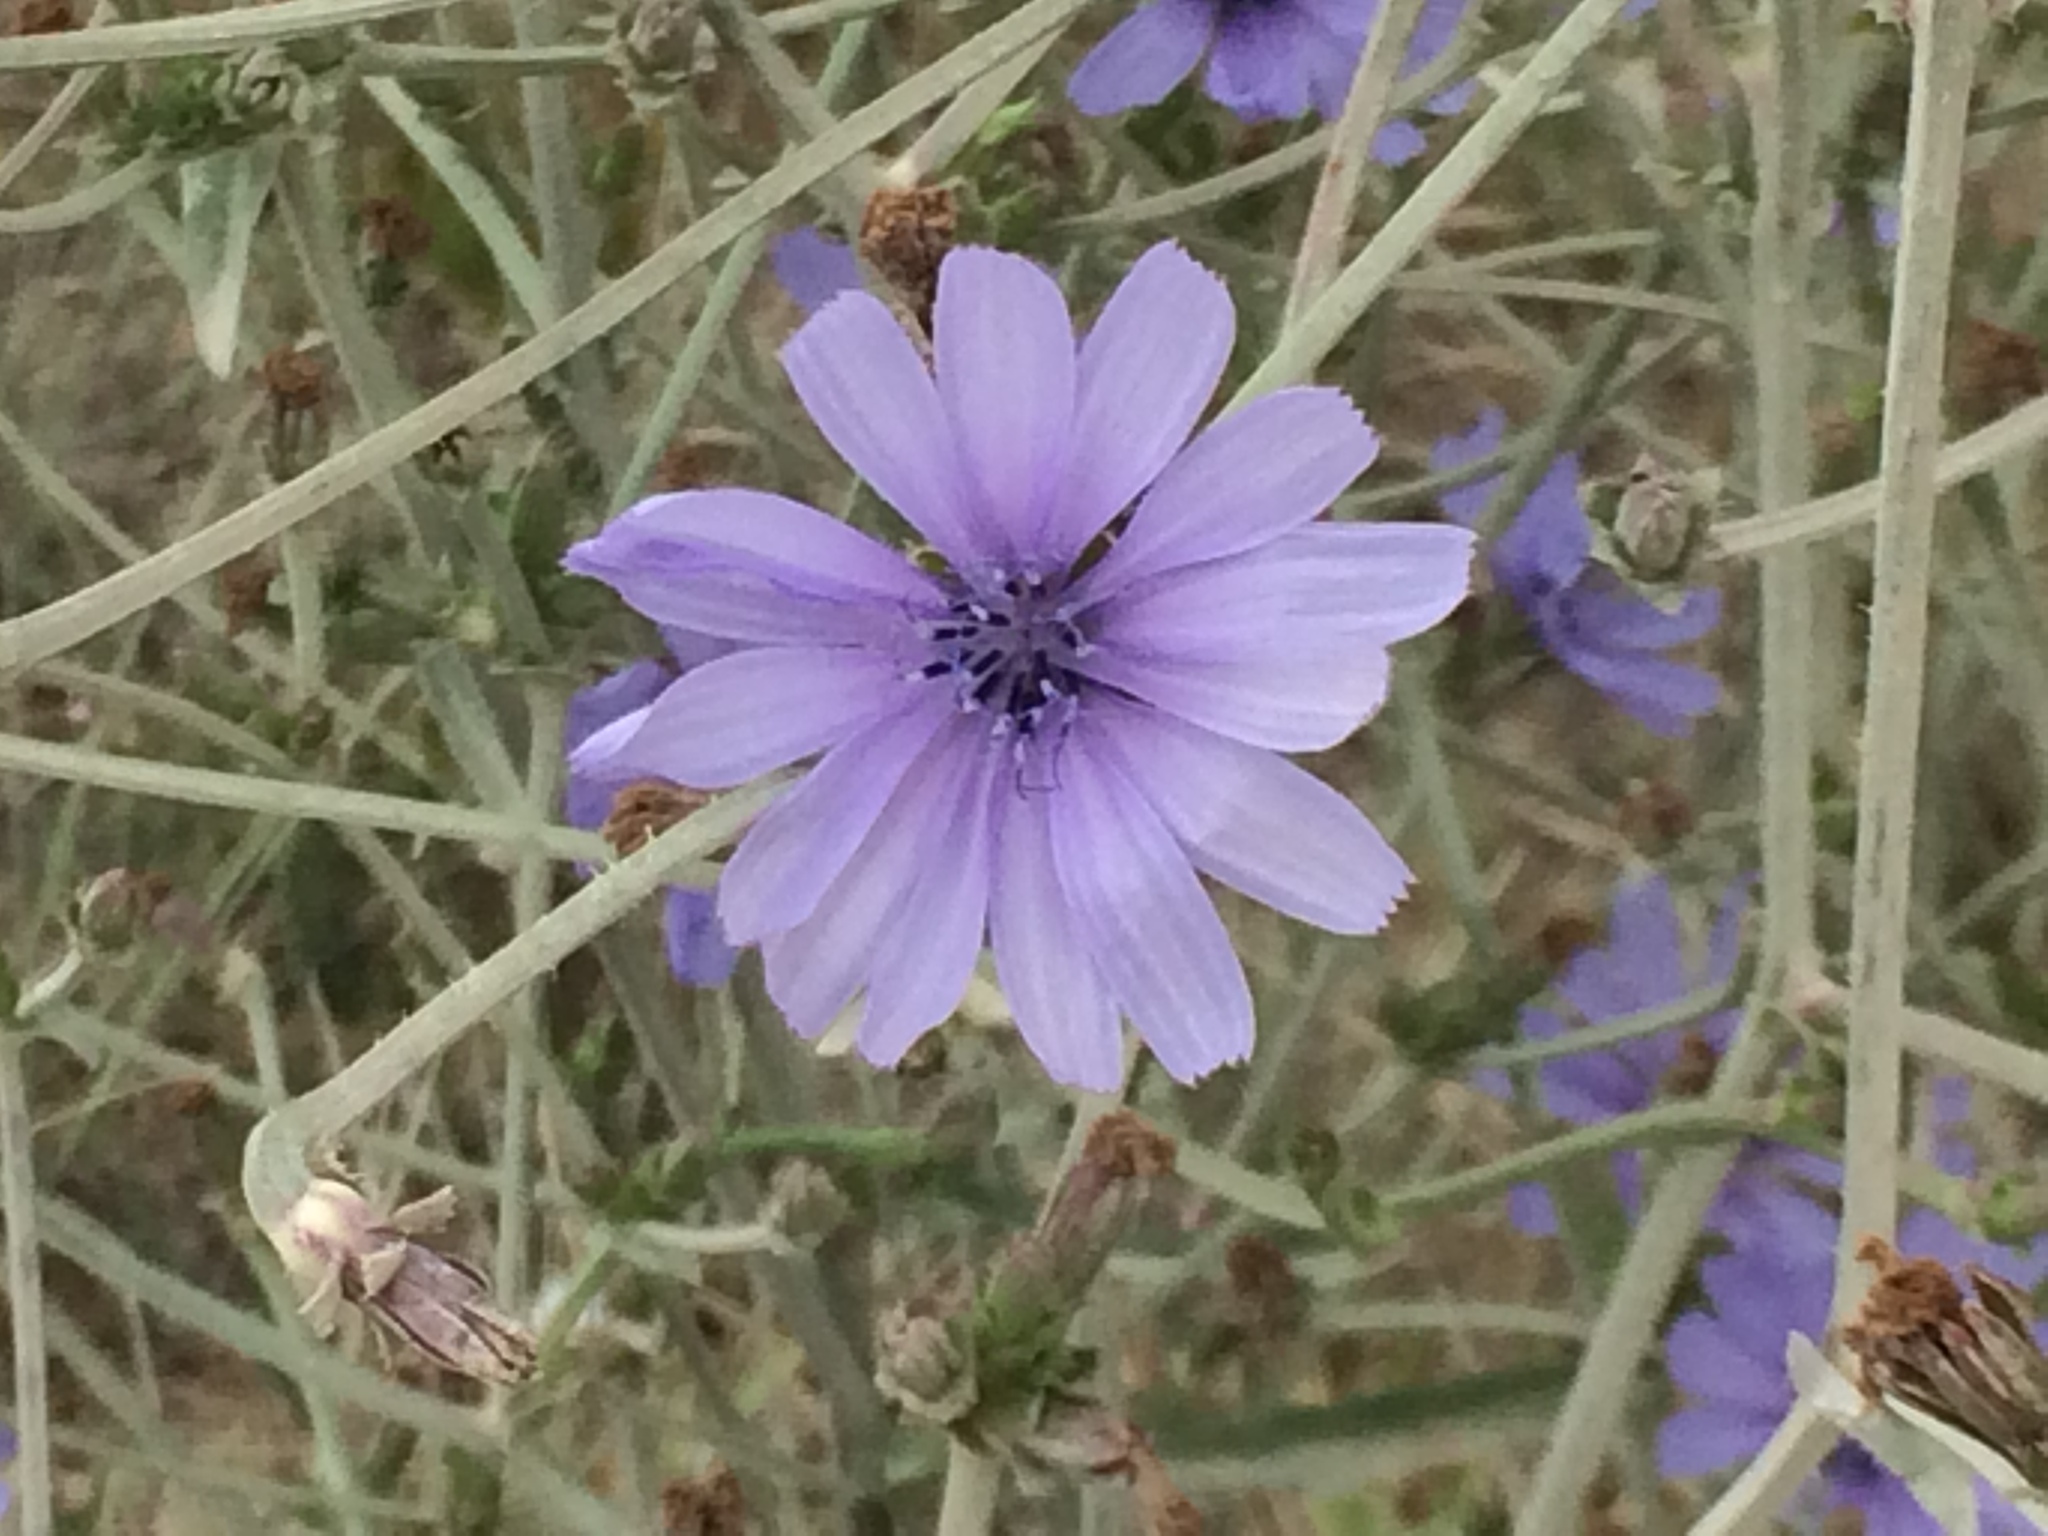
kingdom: Plantae
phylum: Tracheophyta
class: Magnoliopsida
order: Asterales
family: Asteraceae
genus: Cichorium
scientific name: Cichorium intybus
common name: Chicory
